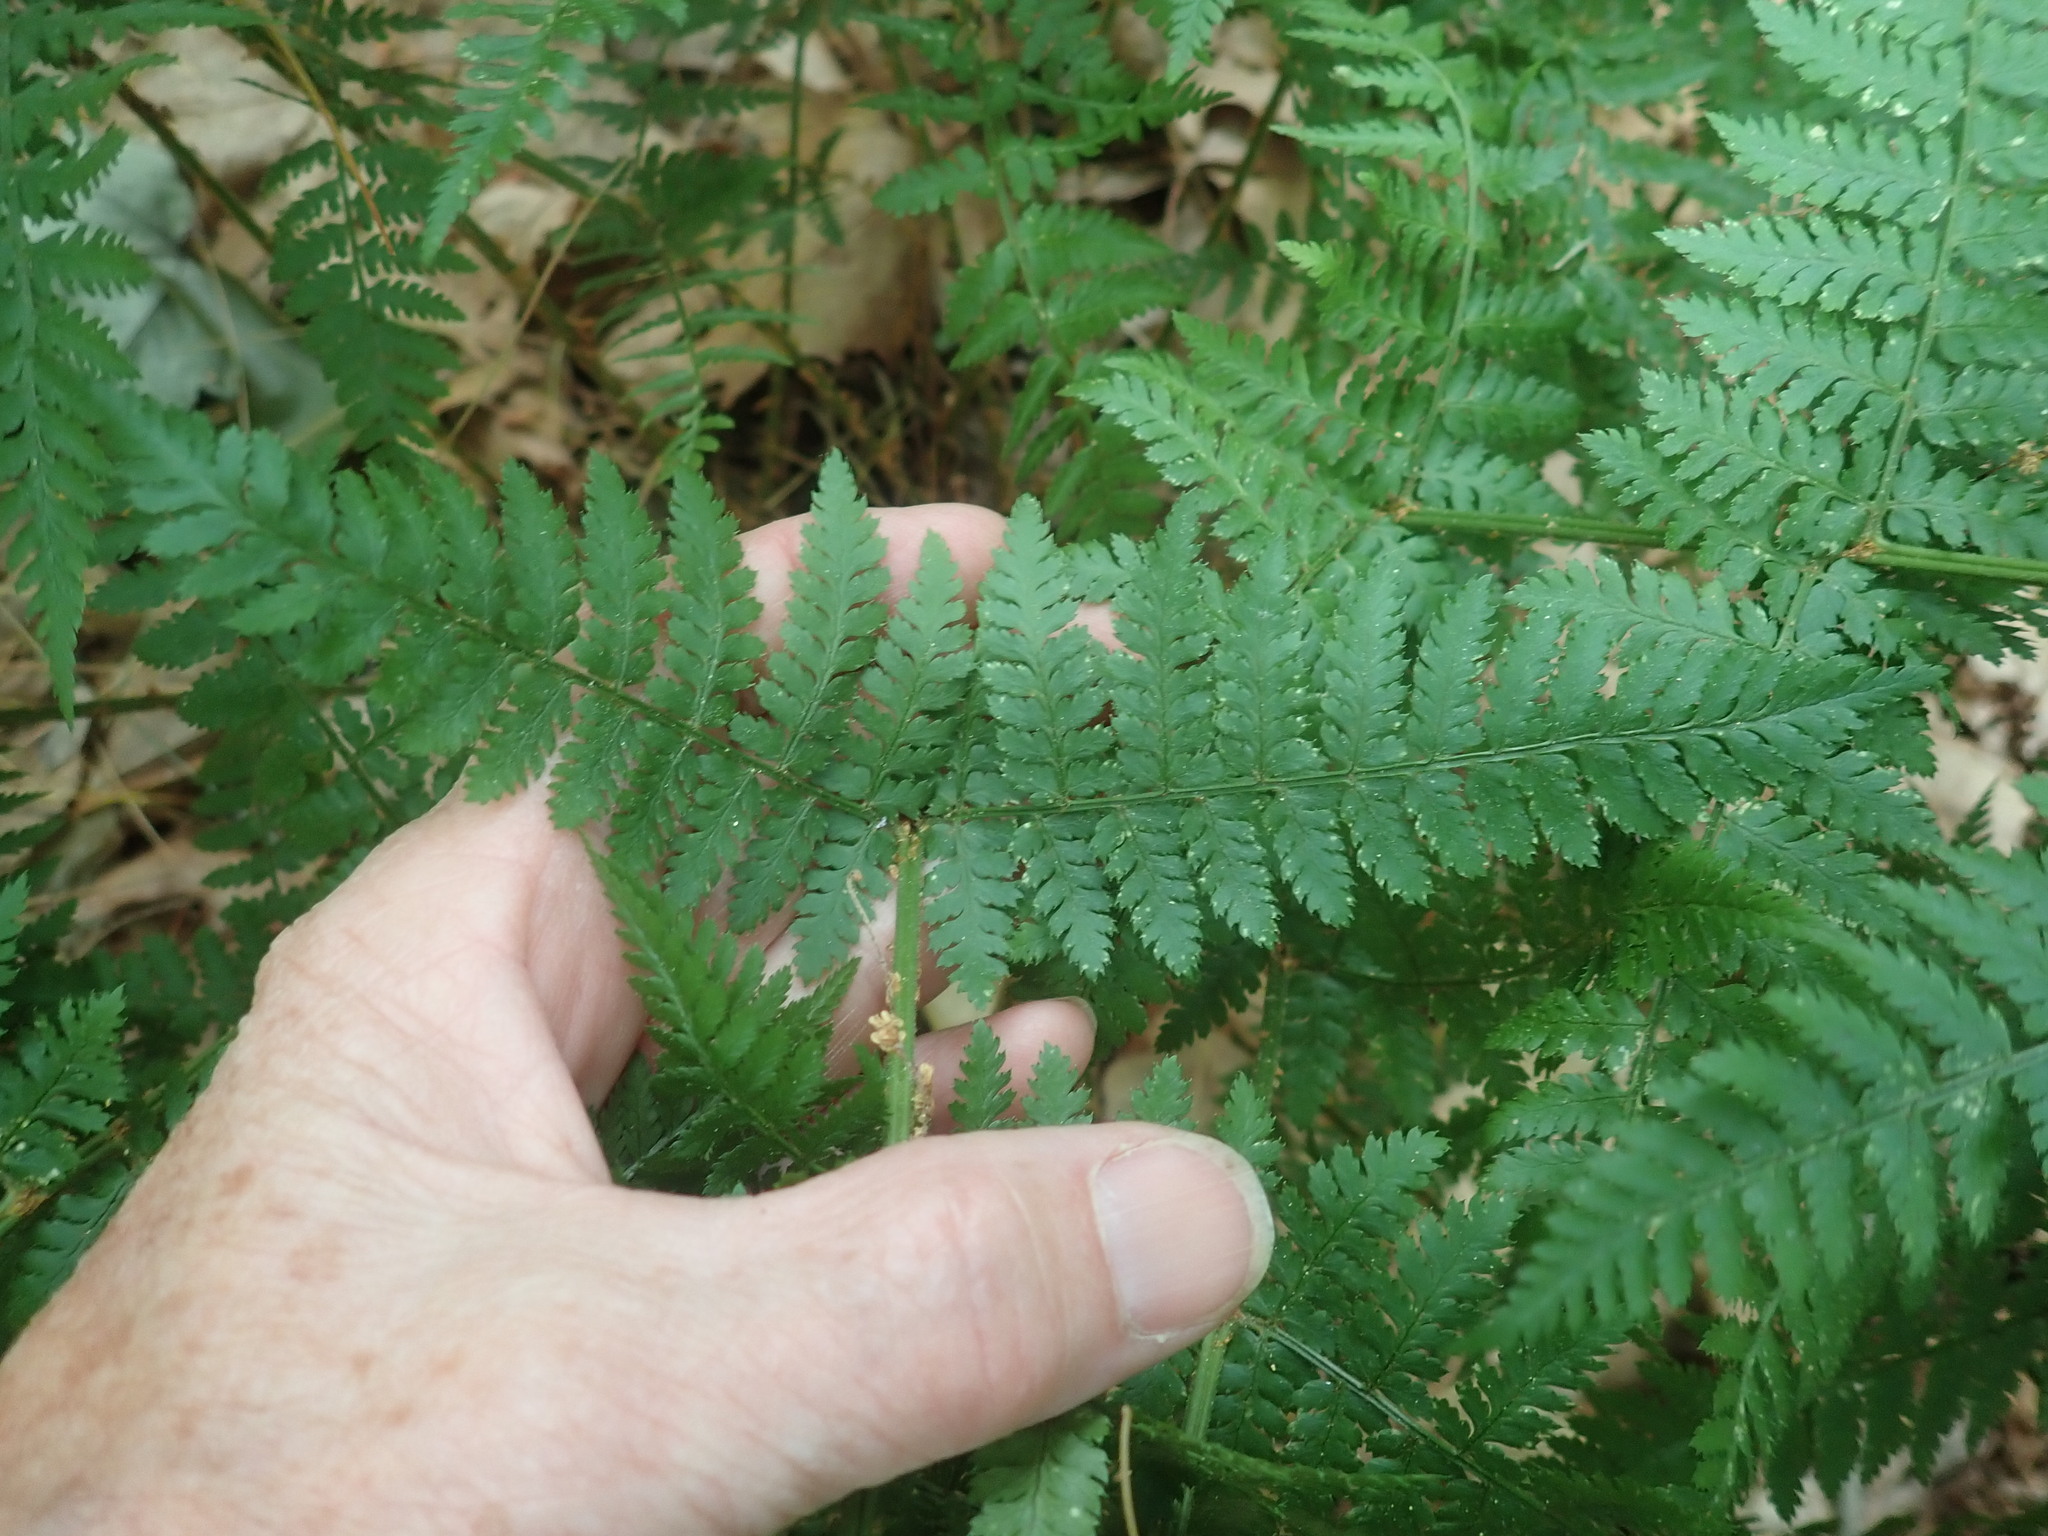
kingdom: Plantae
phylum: Tracheophyta
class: Polypodiopsida
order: Polypodiales
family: Dryopteridaceae
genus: Dryopteris
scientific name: Dryopteris intermedia
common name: Evergreen wood fern
